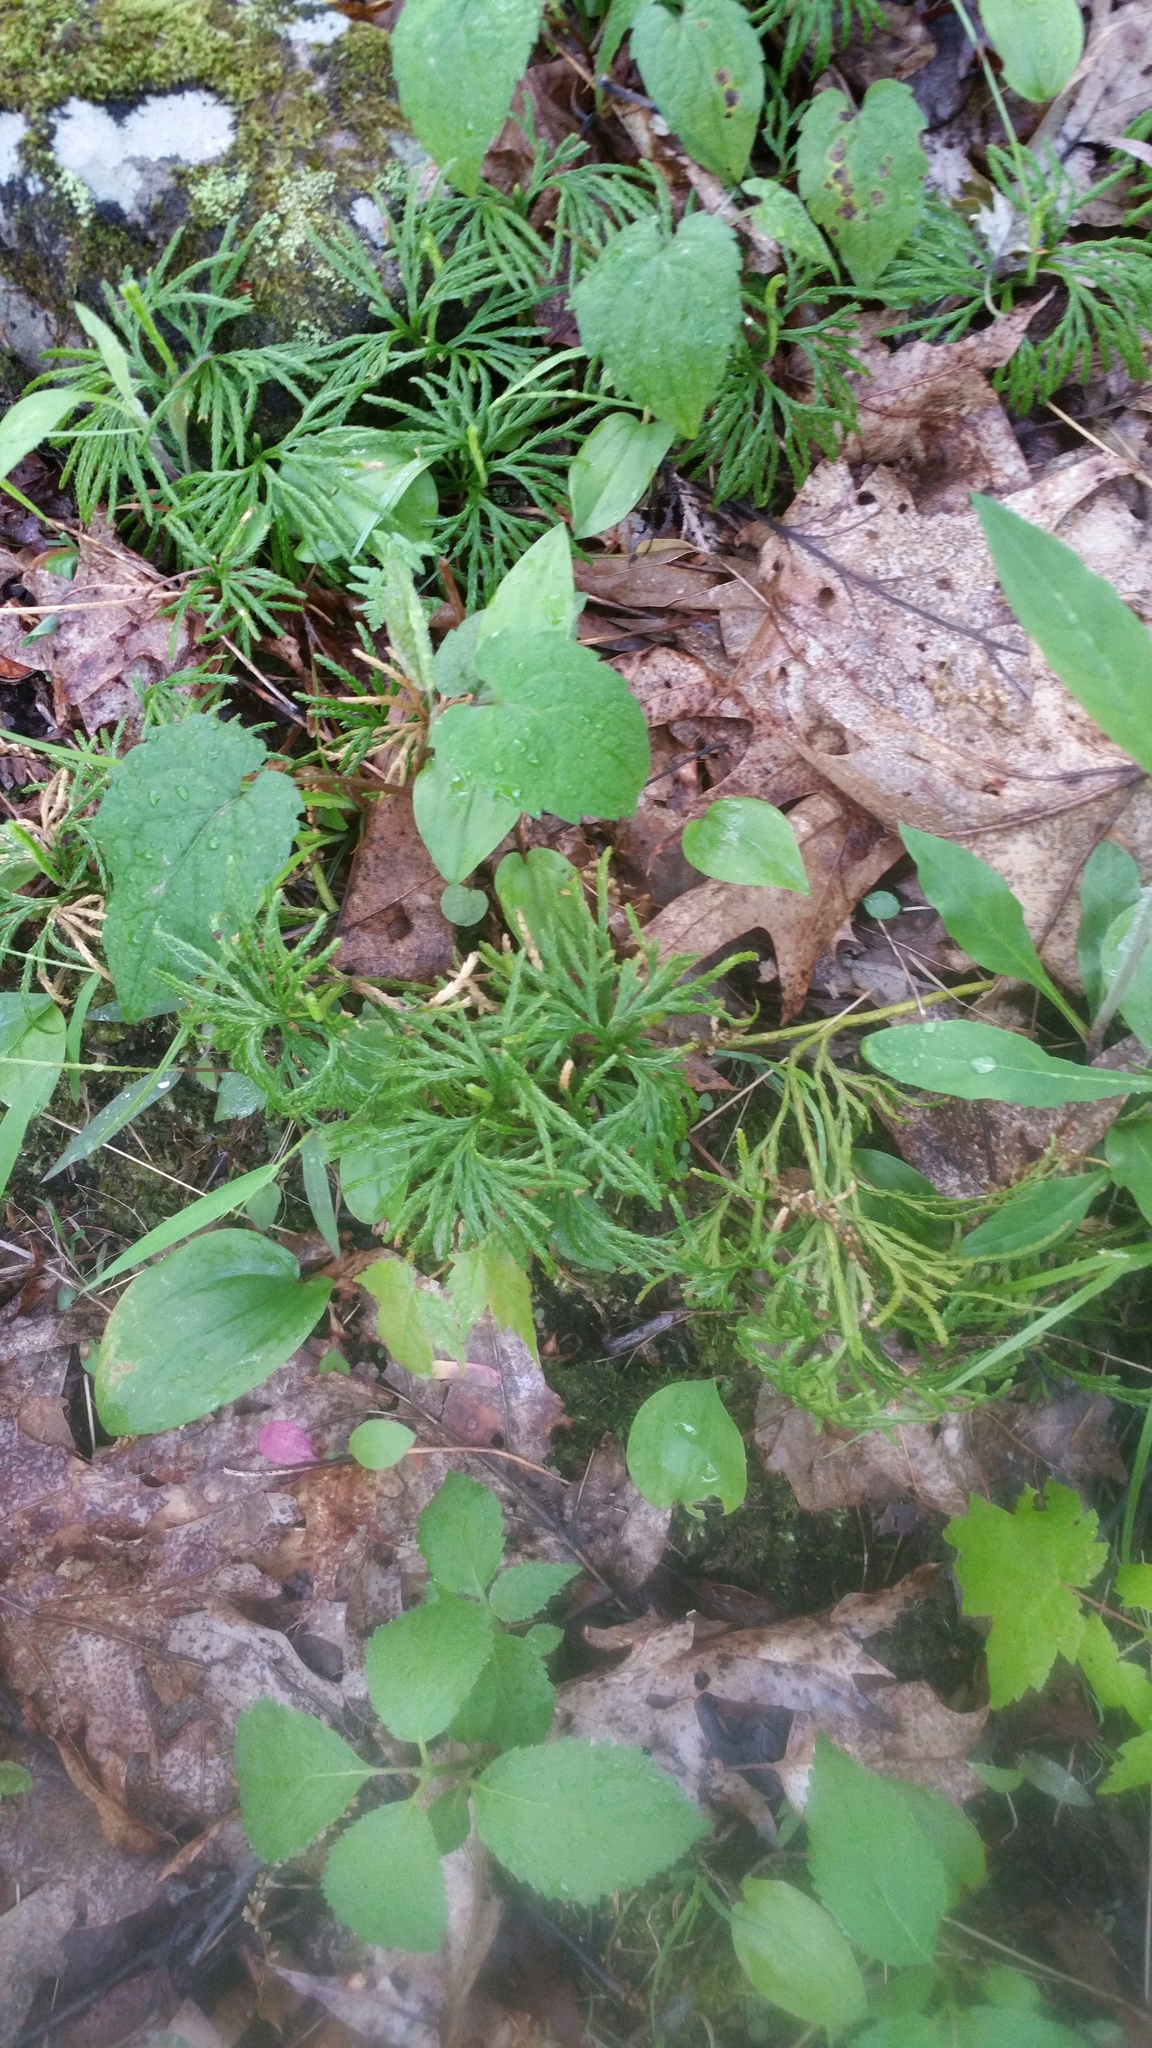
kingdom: Plantae
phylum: Tracheophyta
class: Lycopodiopsida
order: Lycopodiales
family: Lycopodiaceae
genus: Diphasiastrum
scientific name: Diphasiastrum digitatum
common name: Southern running-pine
